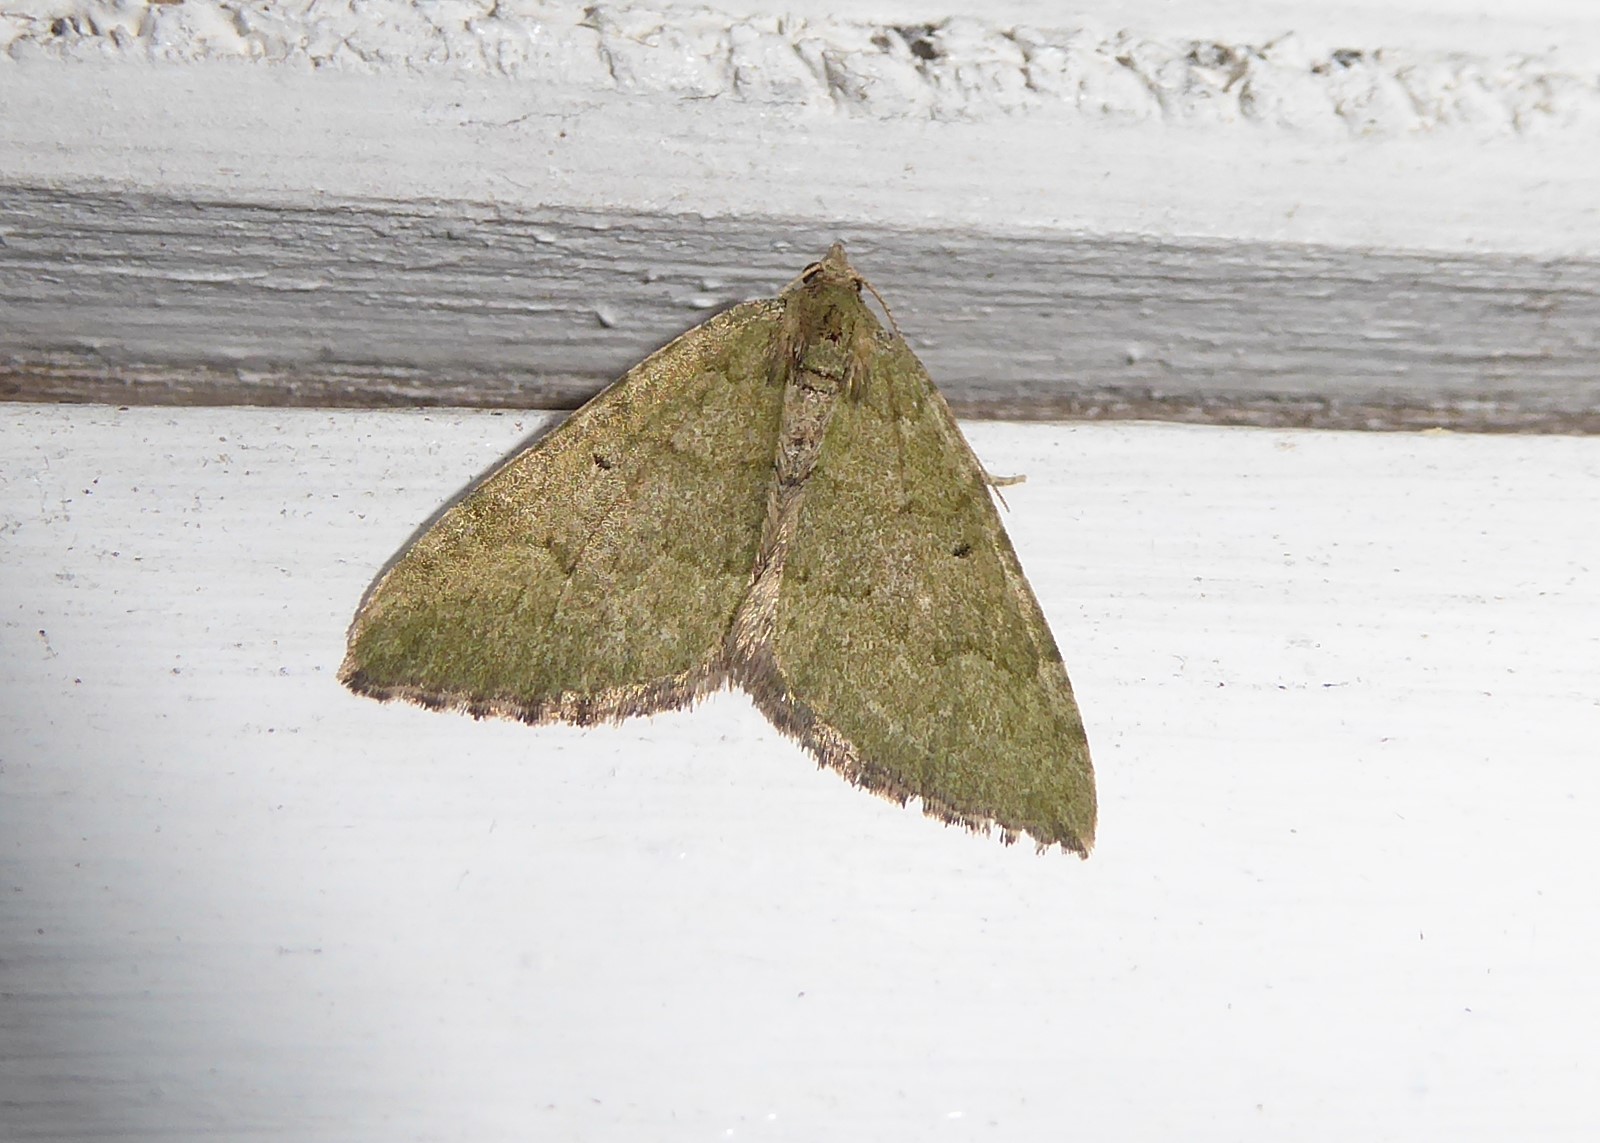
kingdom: Animalia
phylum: Arthropoda
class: Insecta
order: Lepidoptera
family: Geometridae
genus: Epyaxa
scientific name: Epyaxa rosearia
